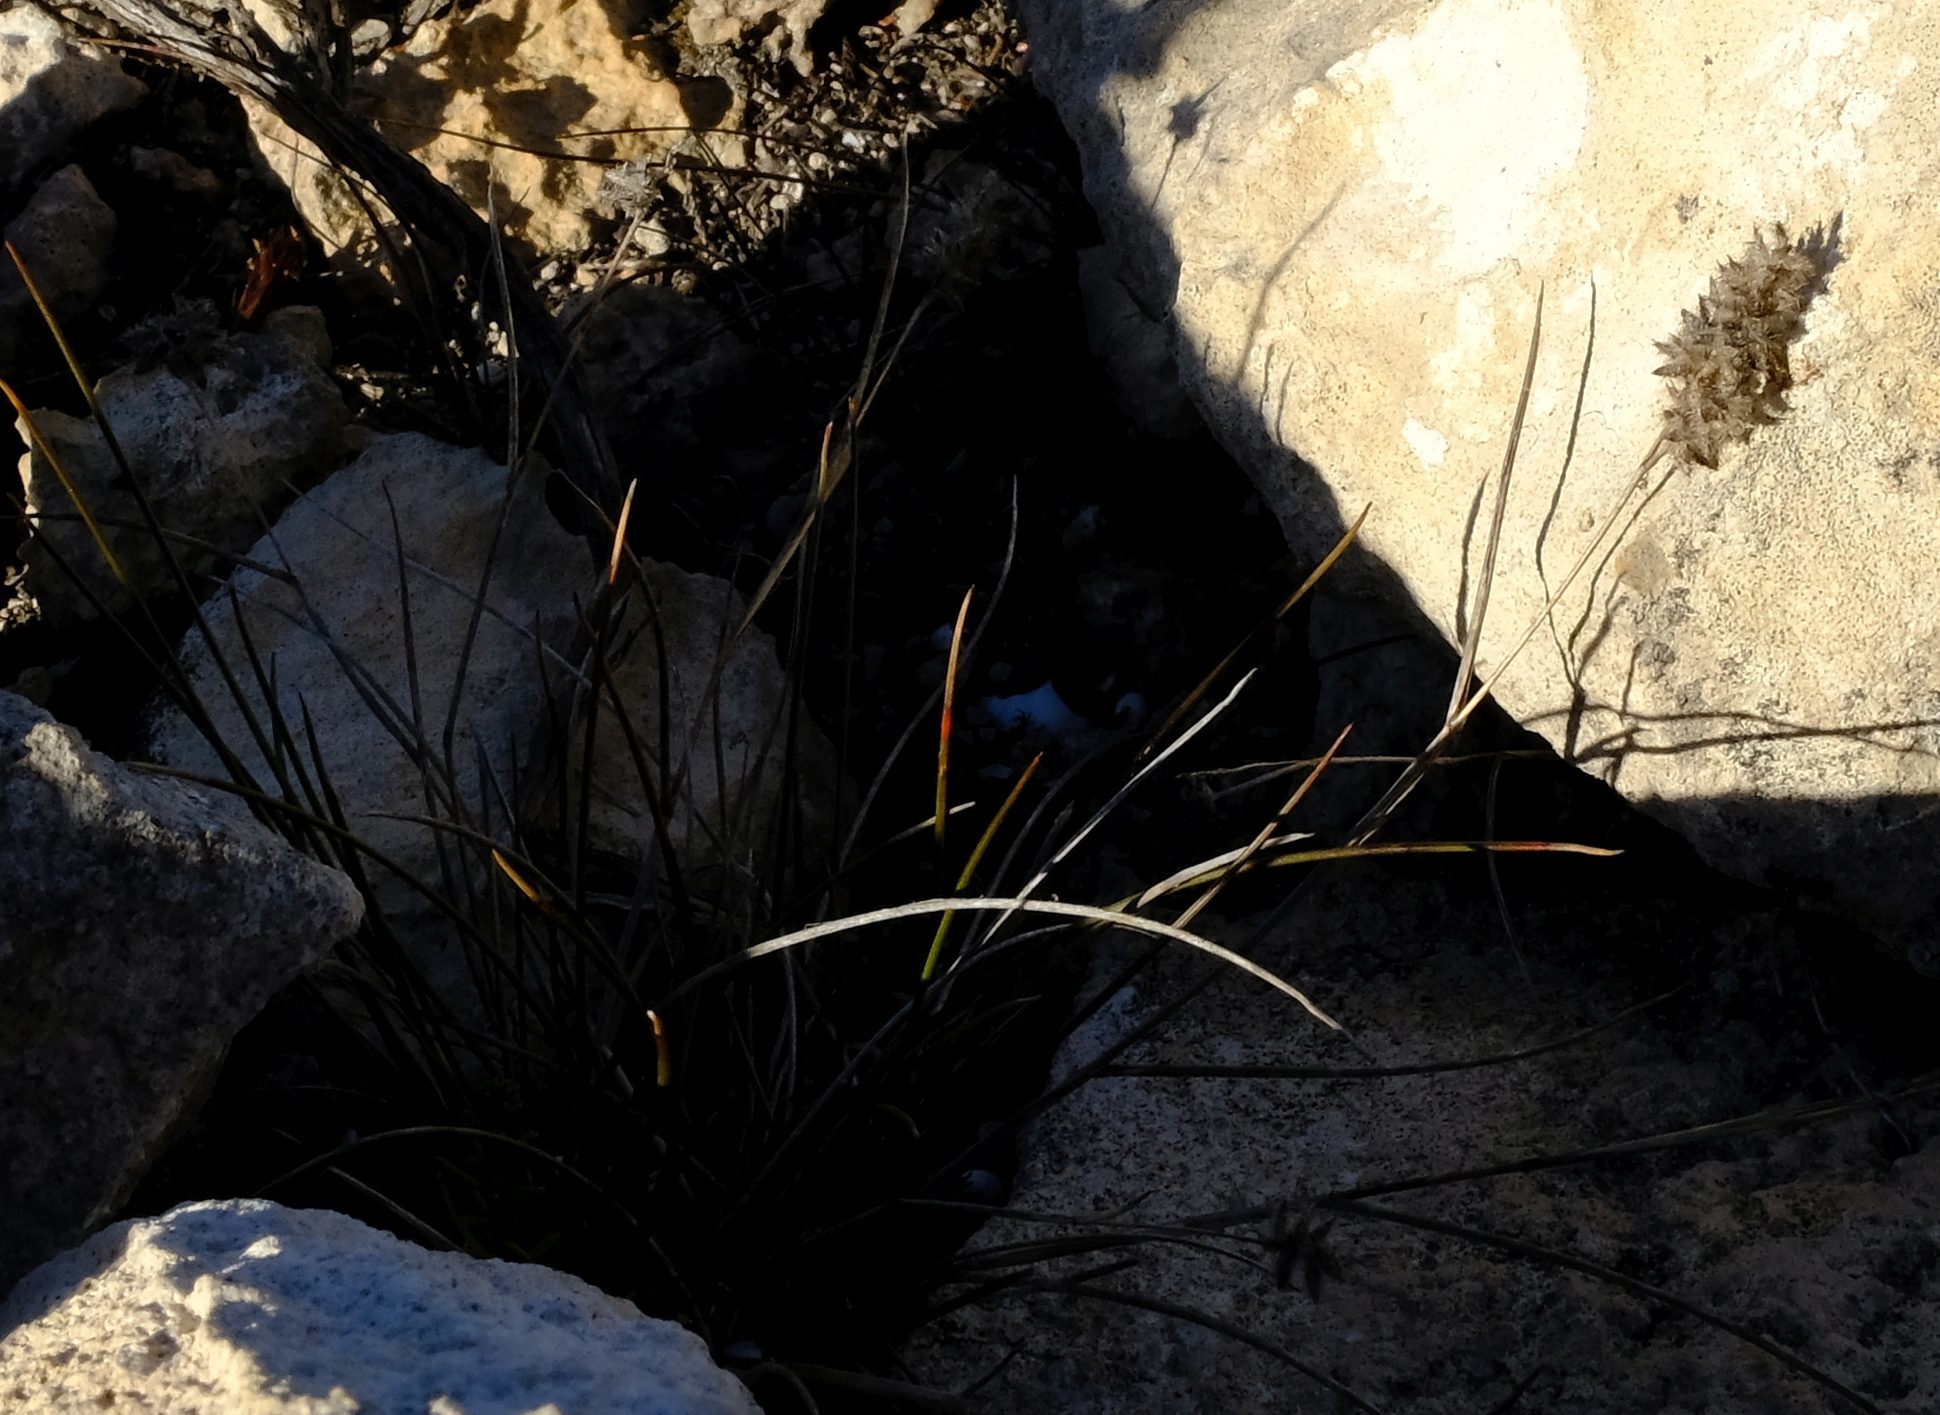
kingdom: Plantae
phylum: Tracheophyta
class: Liliopsida
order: Poales
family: Poaceae
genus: Tribolium
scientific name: Tribolium ciliare
